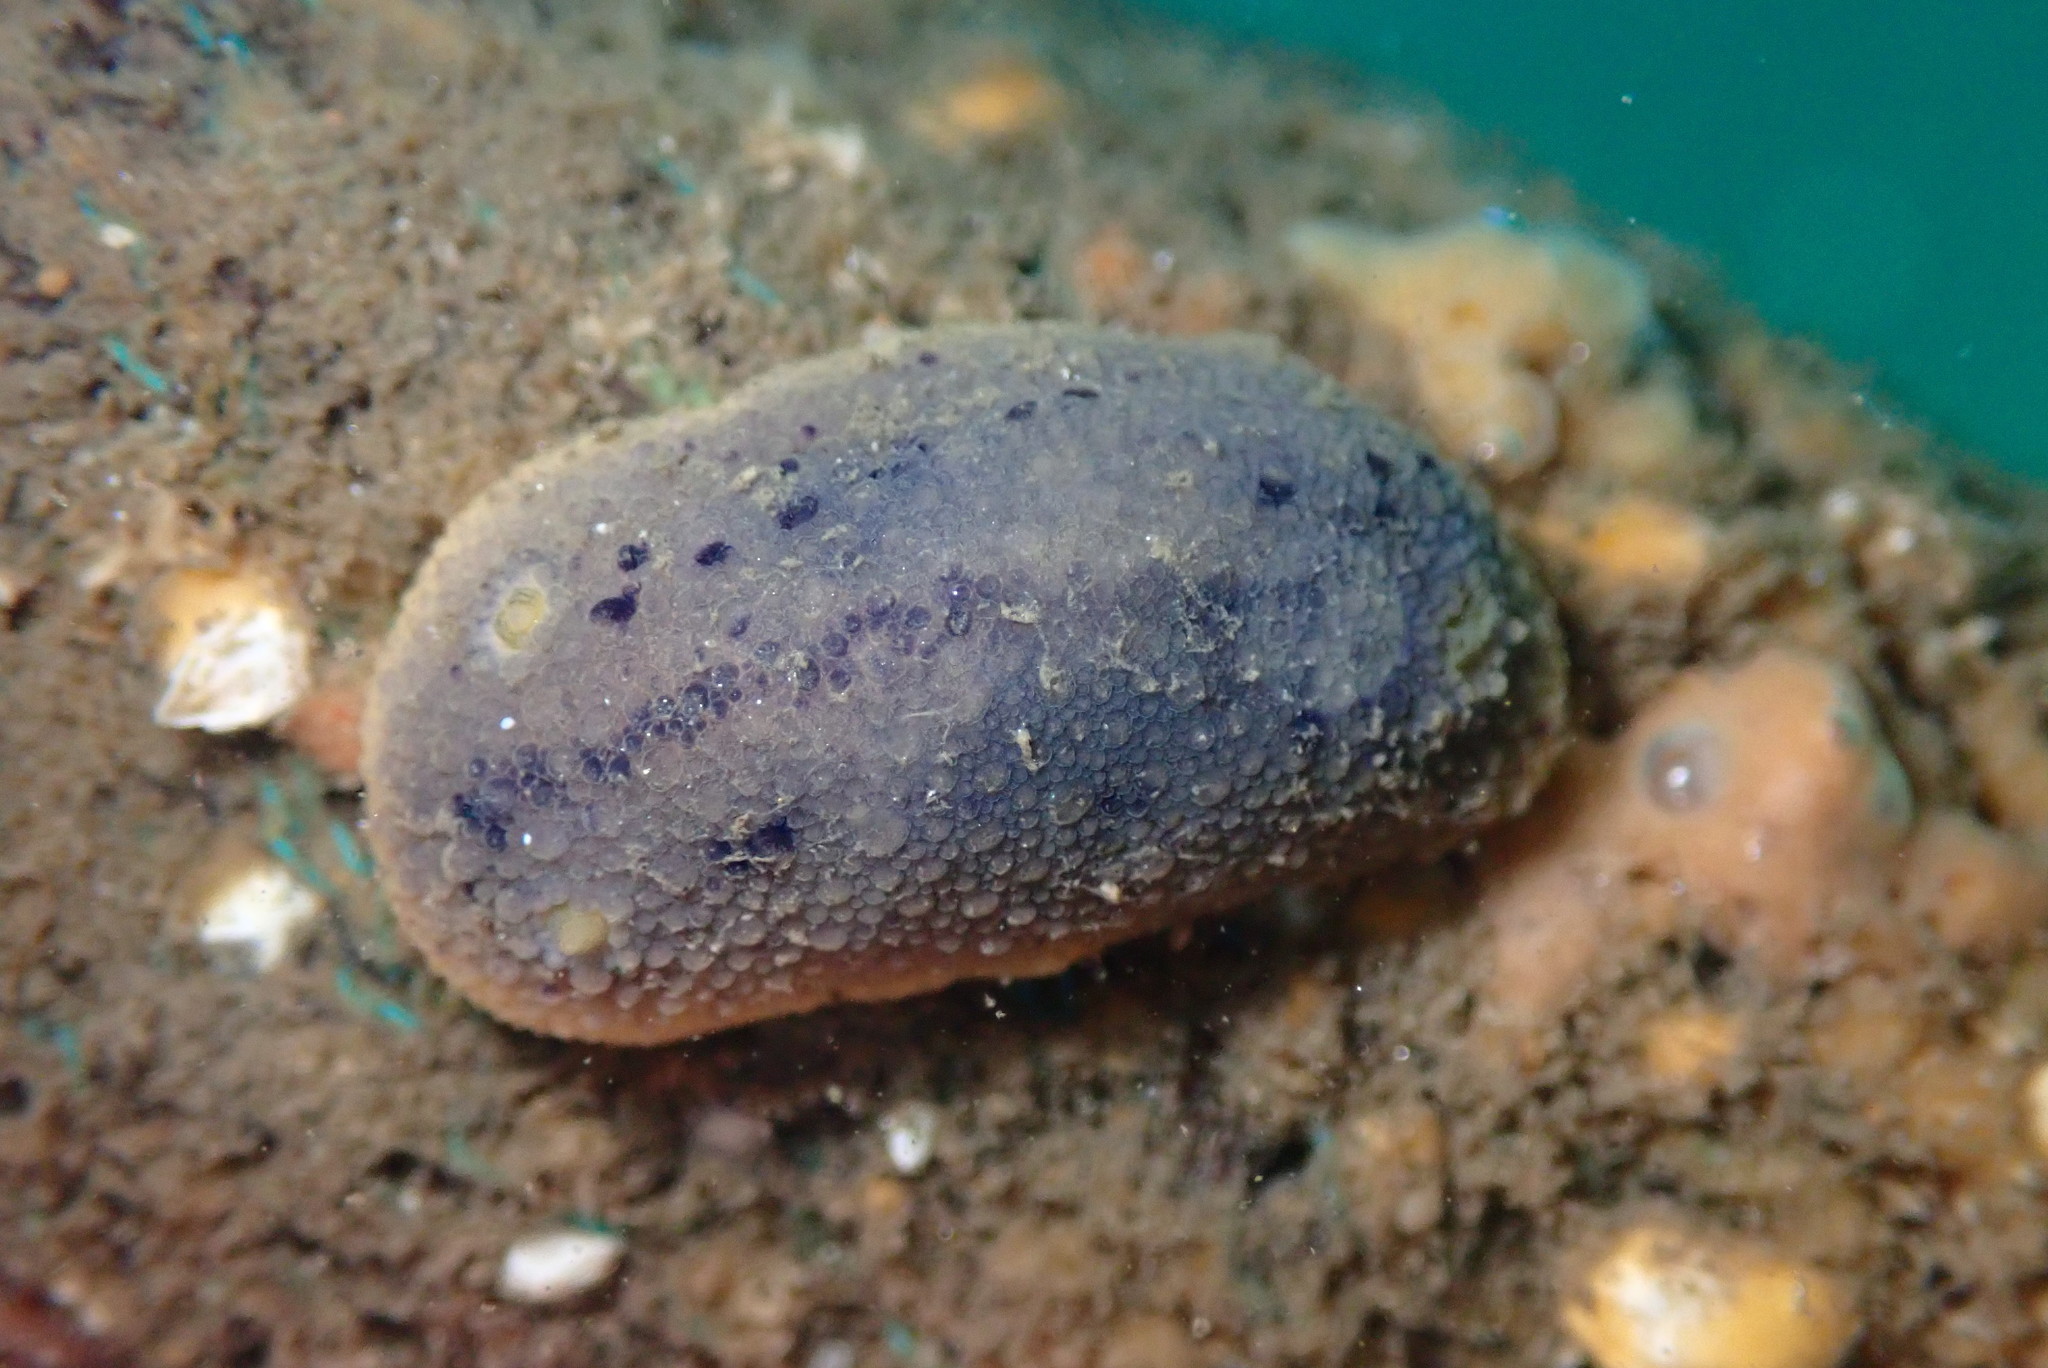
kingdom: Animalia
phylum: Mollusca
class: Gastropoda
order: Nudibranchia
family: Dorididae
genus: Doris
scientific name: Doris montereyensis
